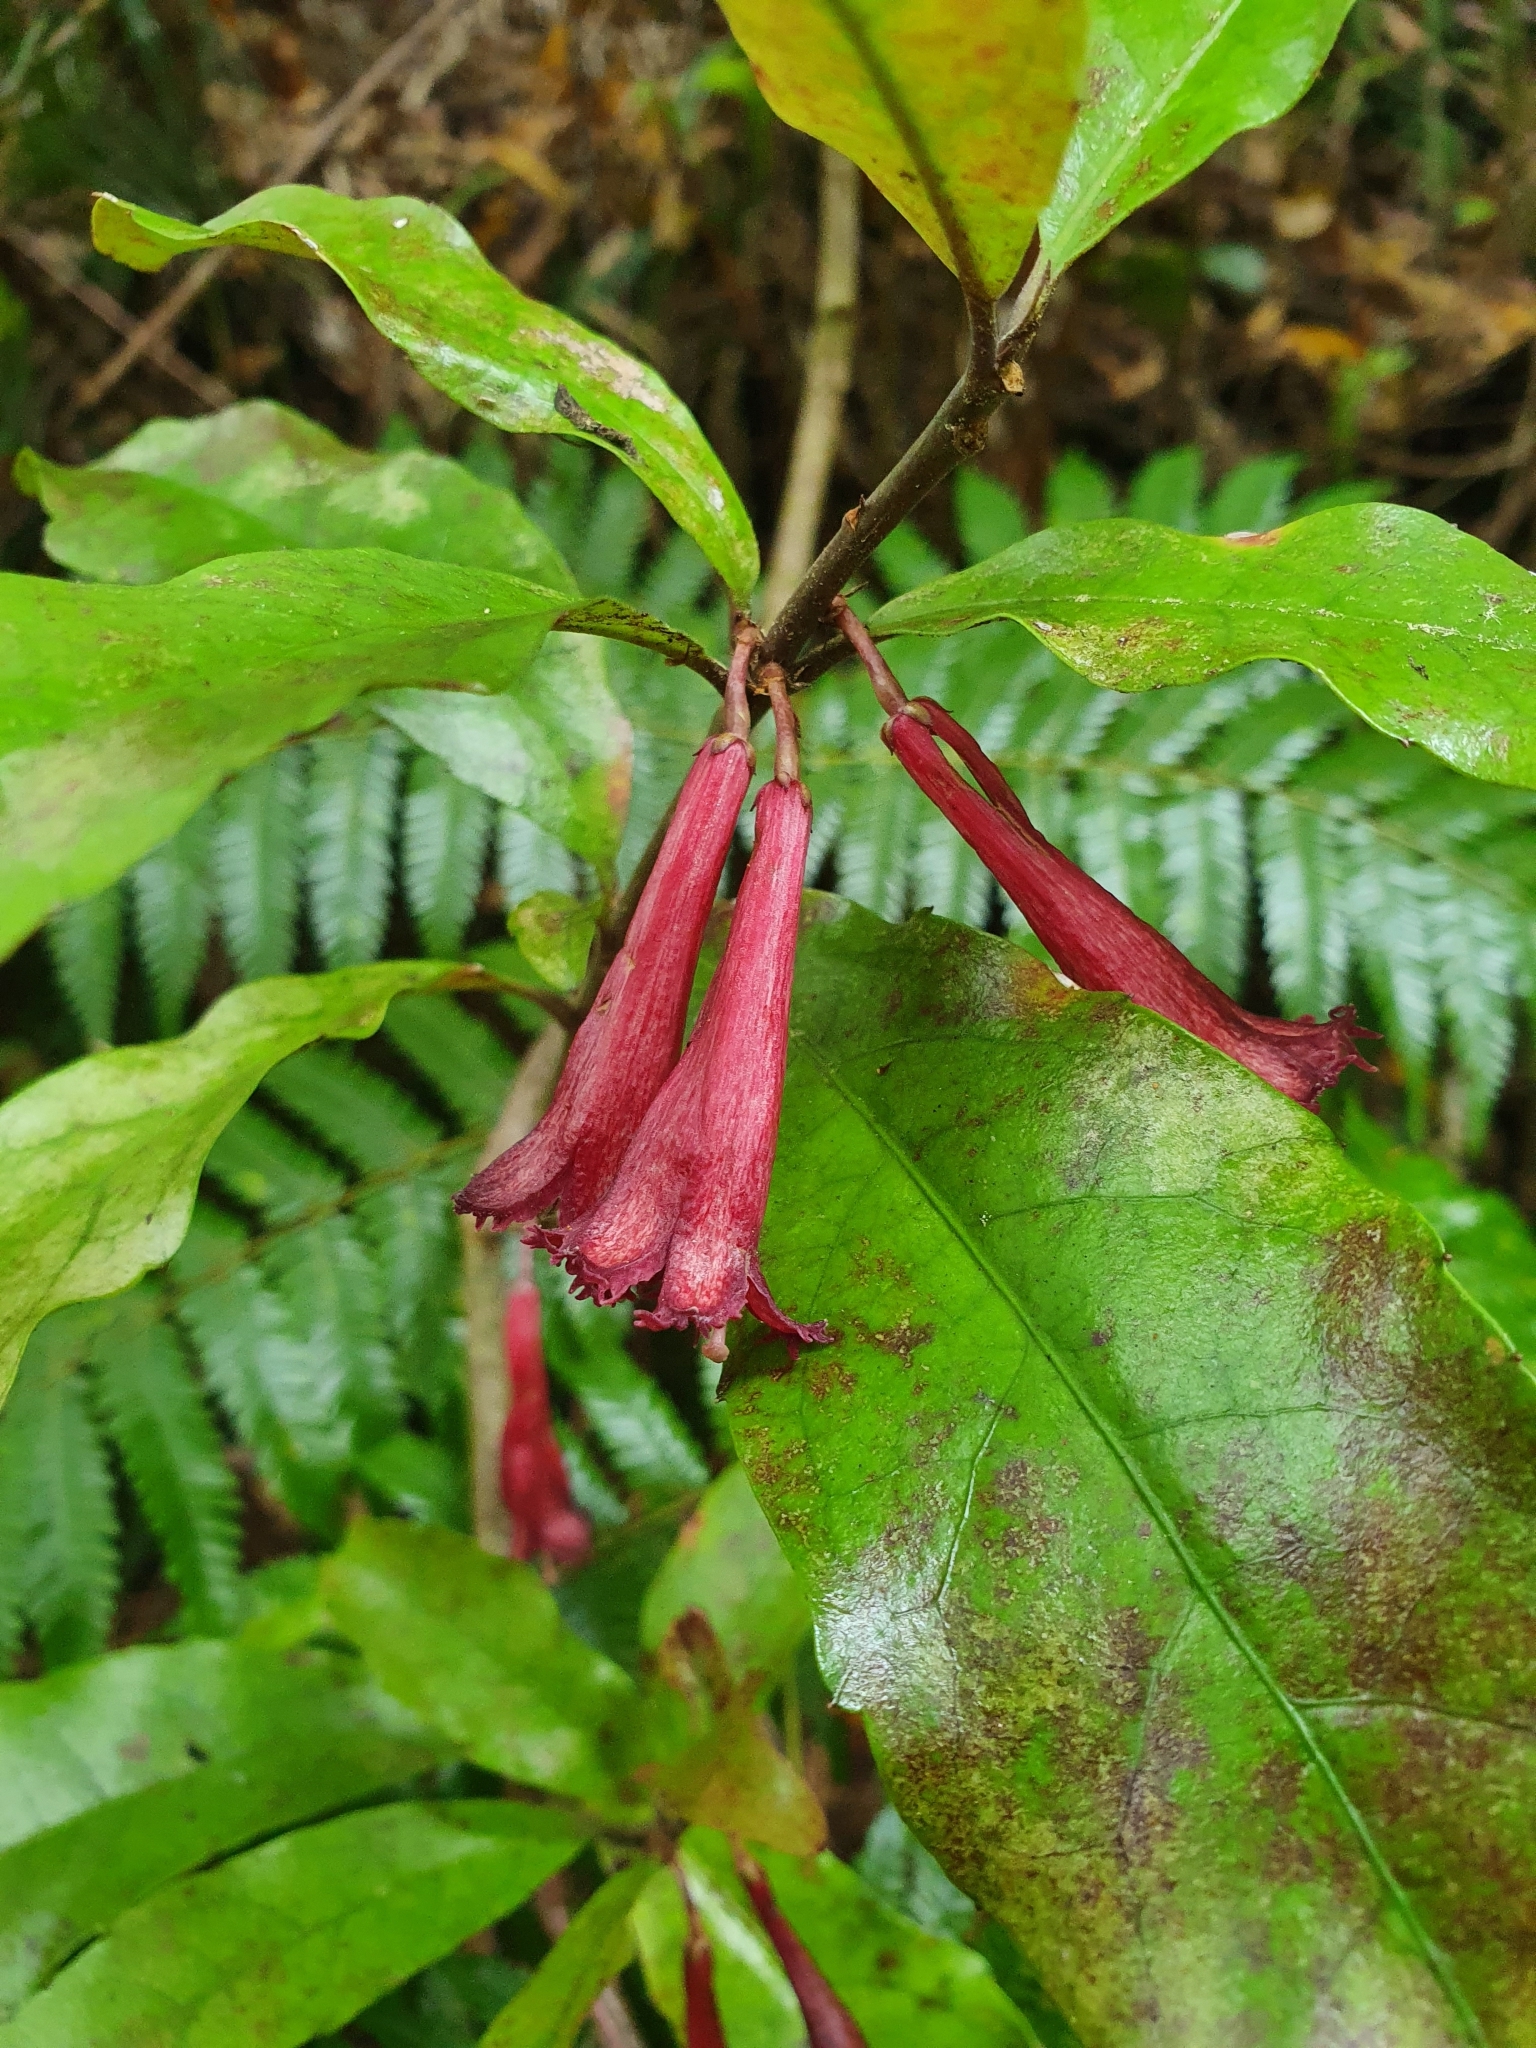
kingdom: Plantae
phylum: Tracheophyta
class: Magnoliopsida
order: Asterales
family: Alseuosmiaceae
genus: Alseuosmia
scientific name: Alseuosmia macrophylla
